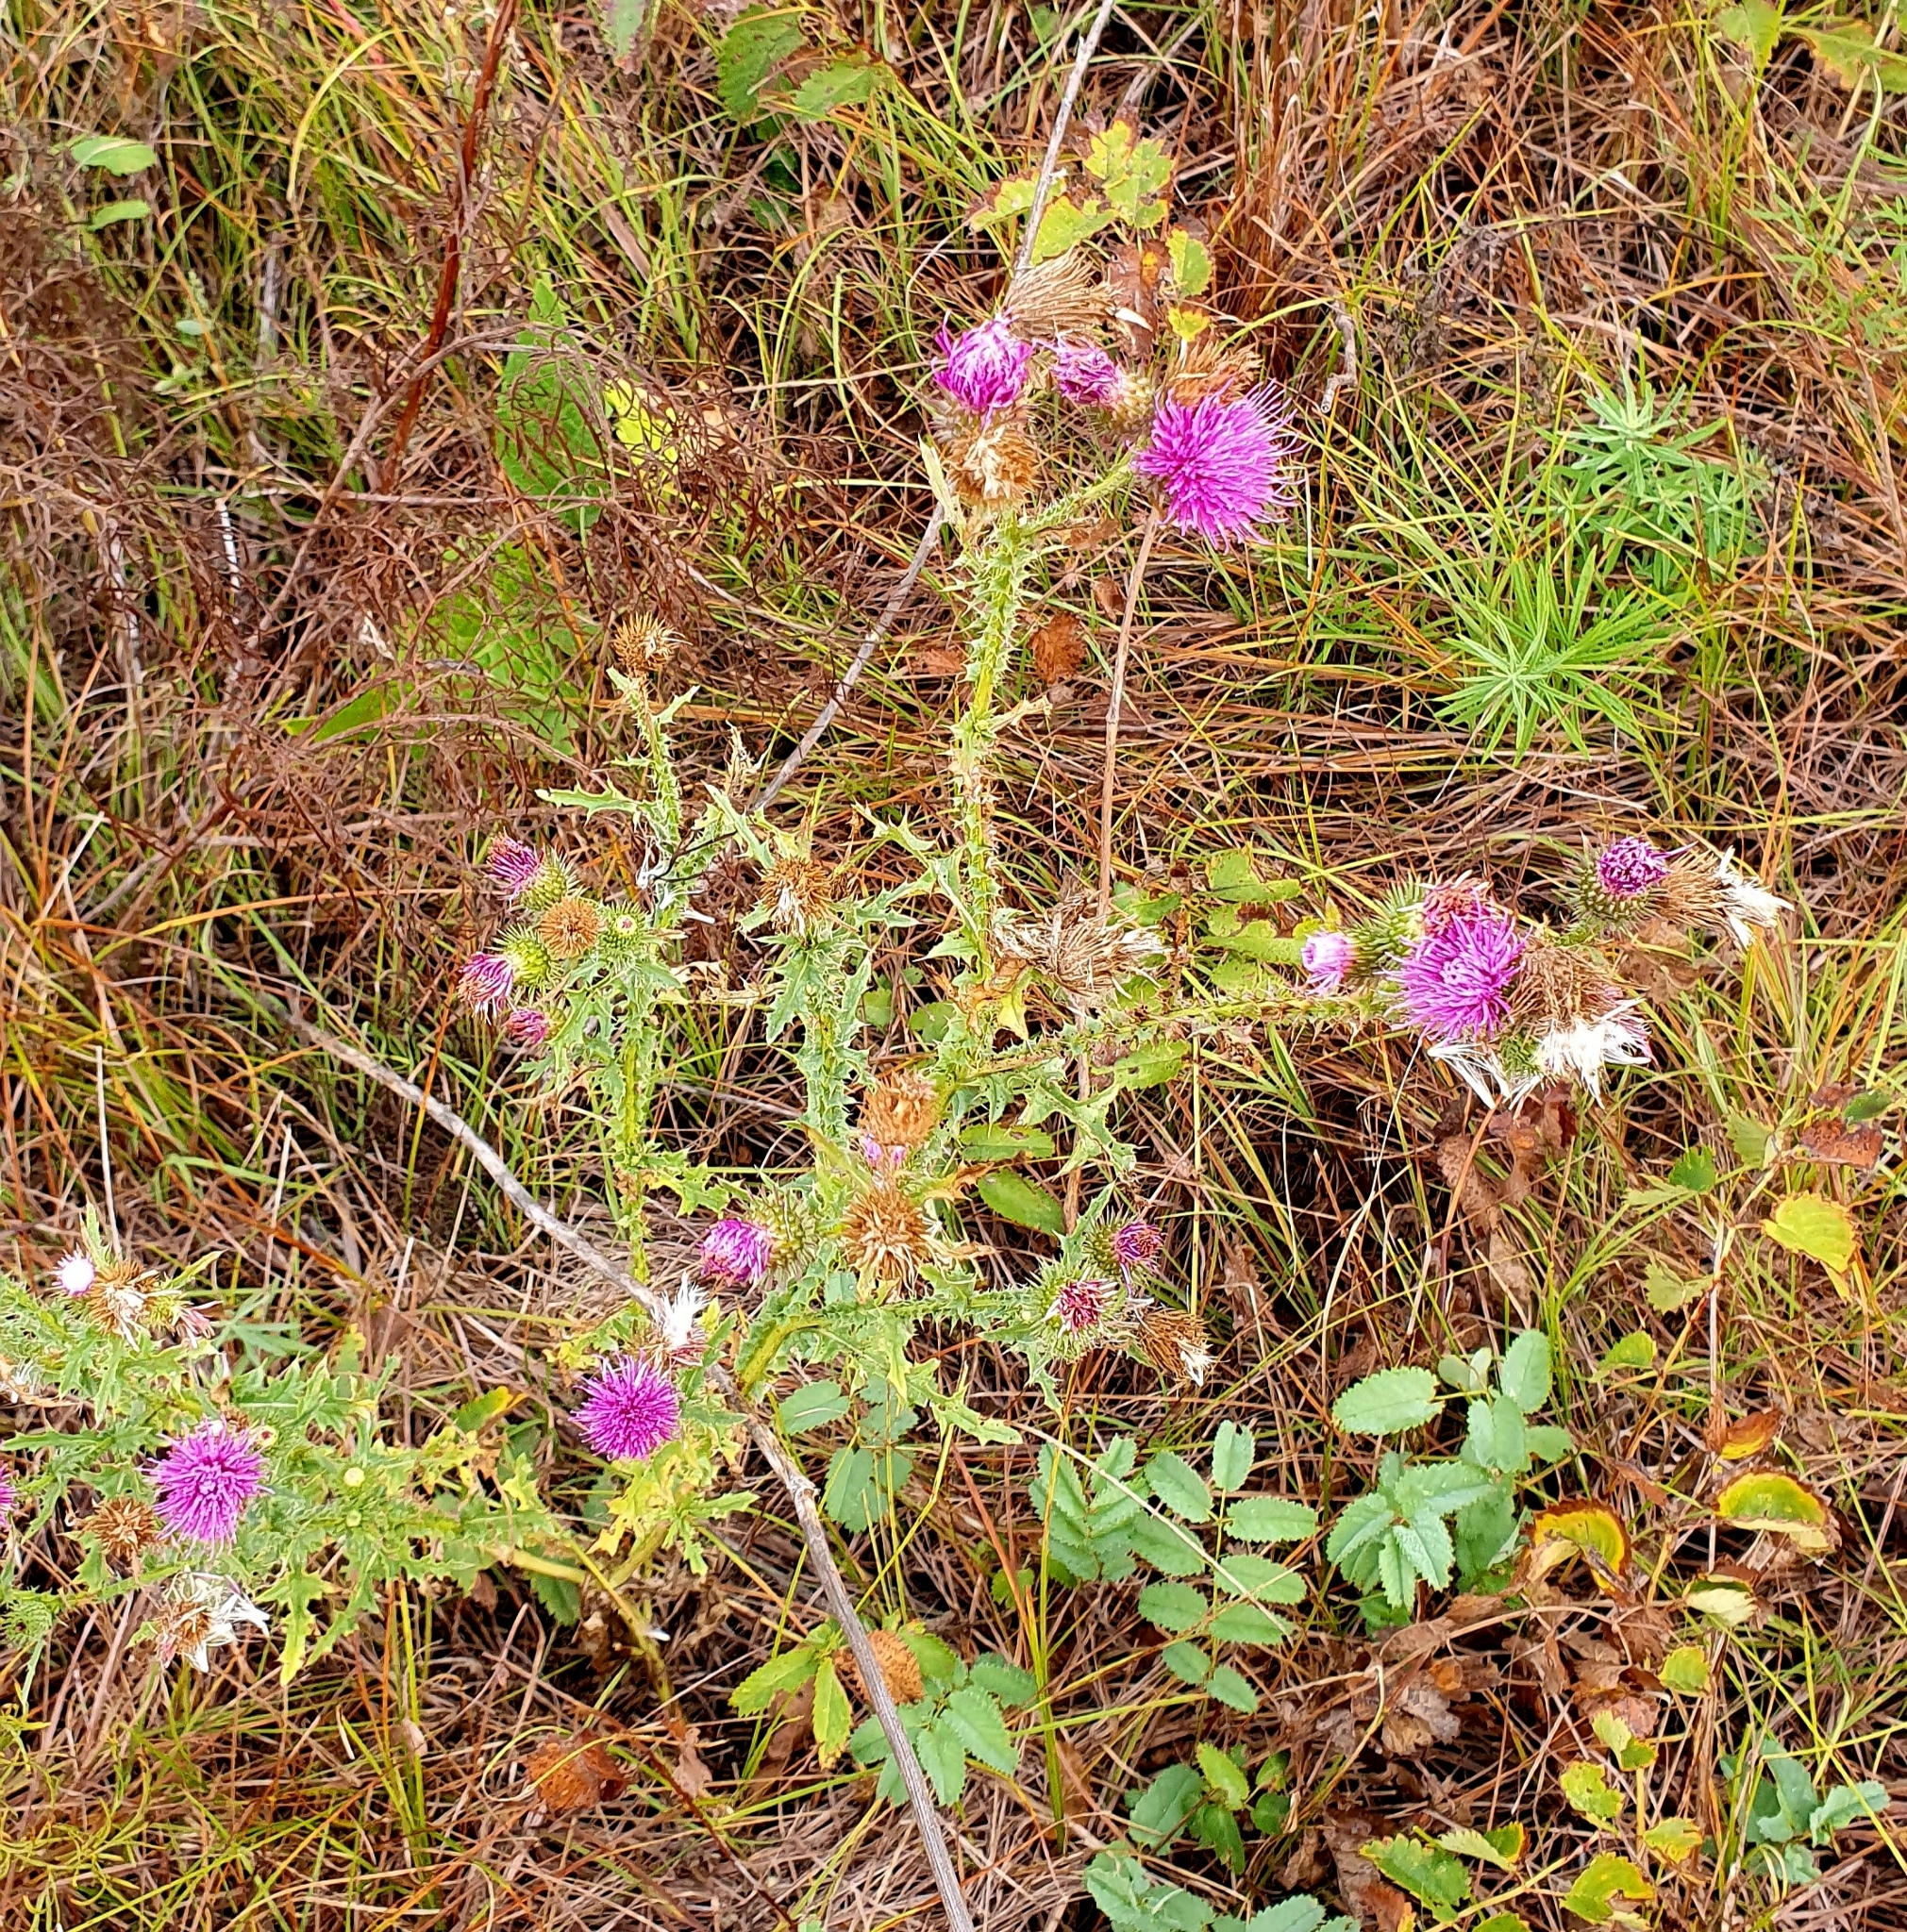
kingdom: Plantae
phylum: Tracheophyta
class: Magnoliopsida
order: Asterales
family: Asteraceae
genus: Carduus
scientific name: Carduus acanthoides
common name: Plumeless thistle
